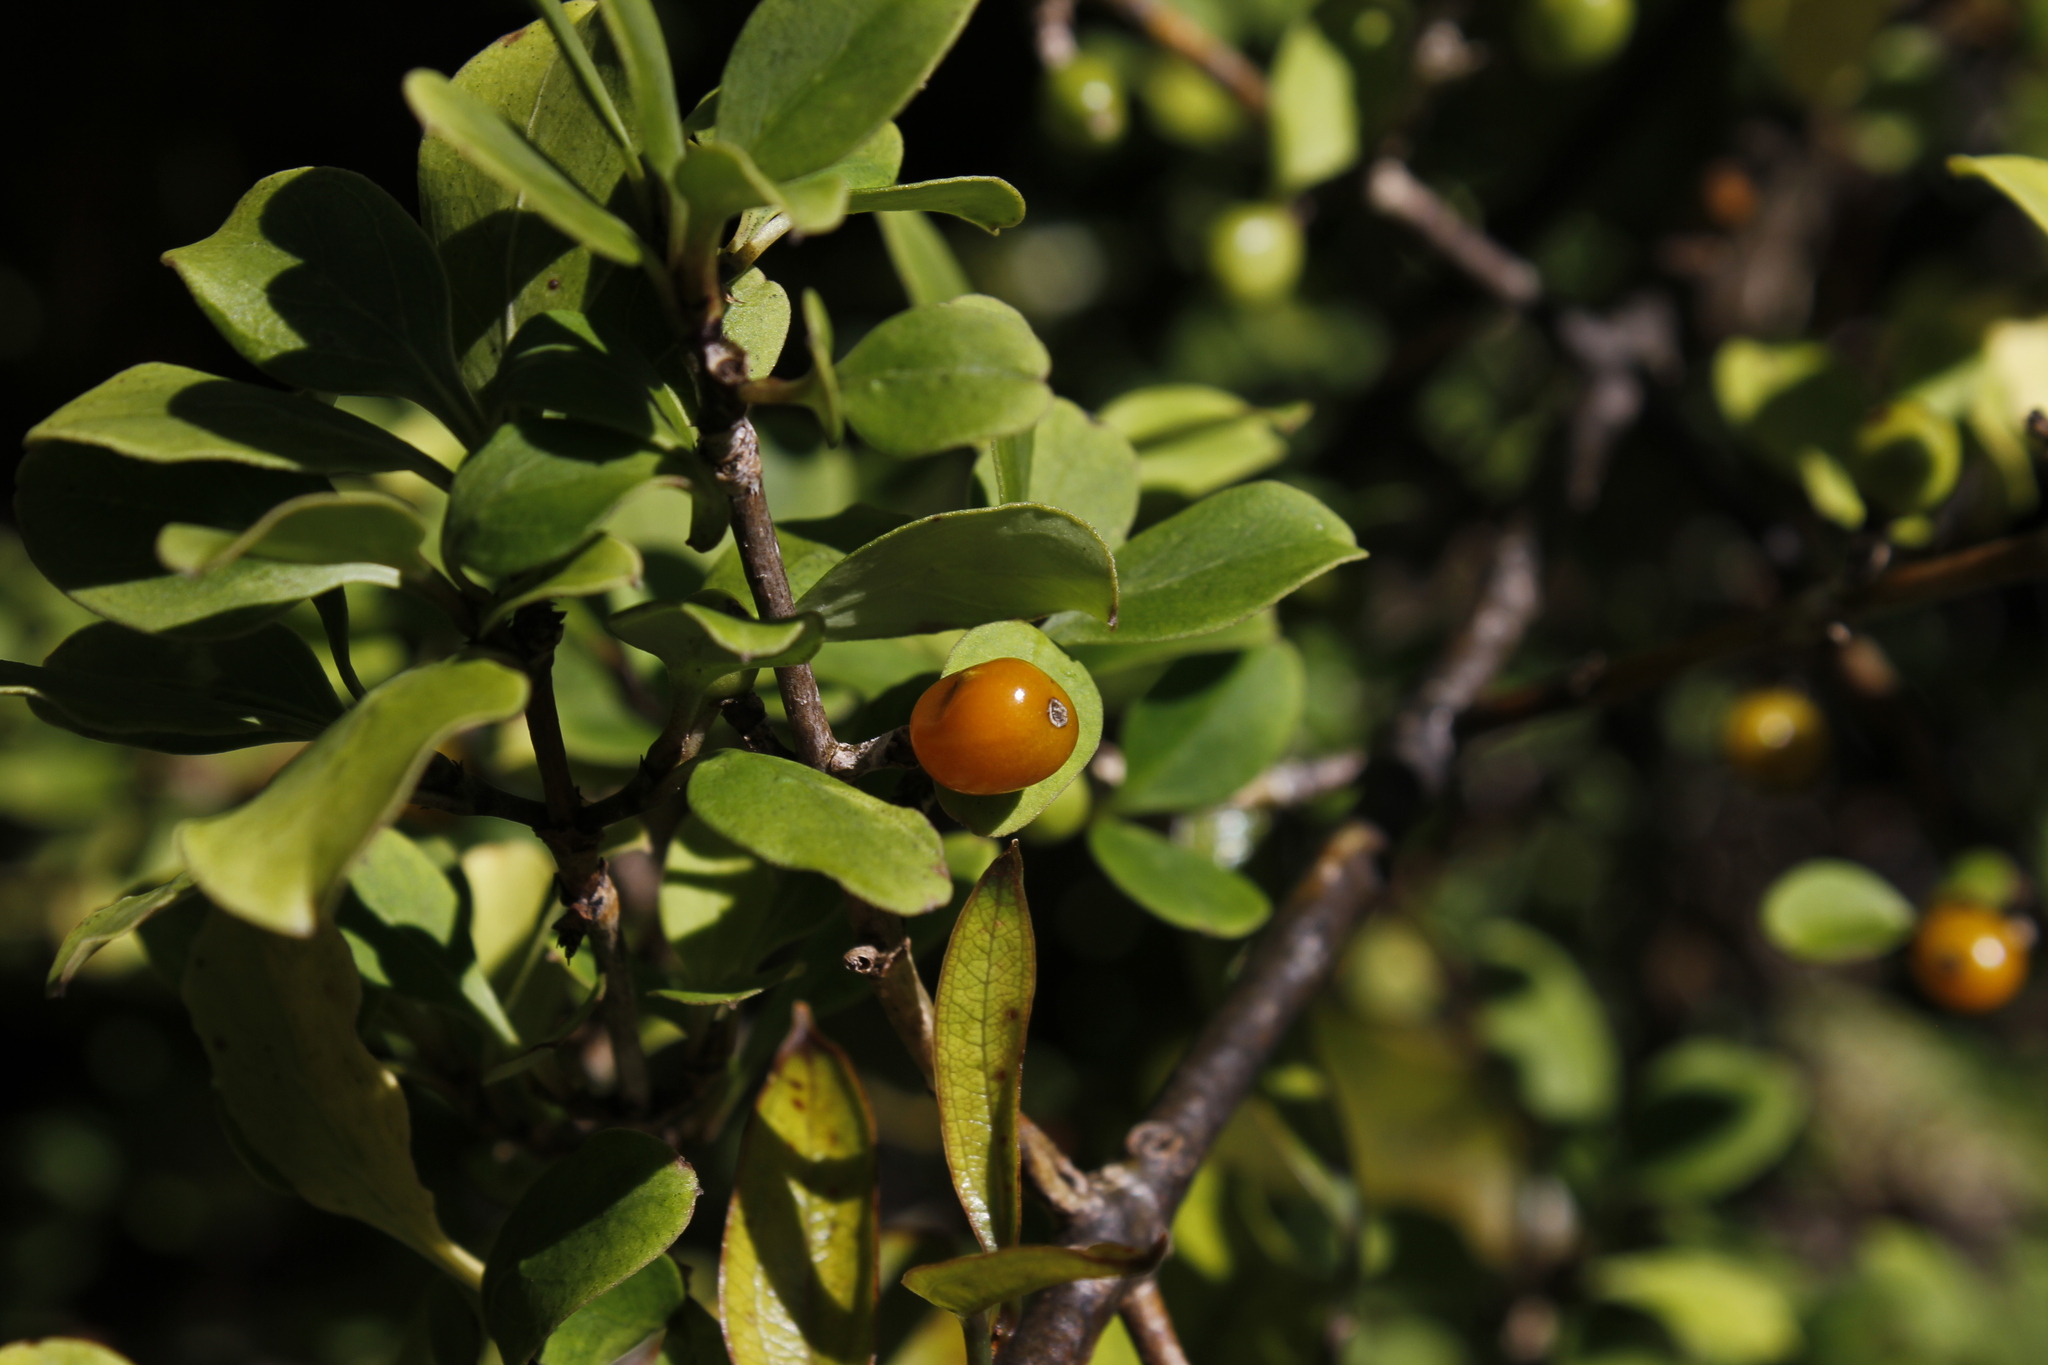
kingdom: Plantae
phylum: Tracheophyta
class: Magnoliopsida
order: Gentianales
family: Rubiaceae
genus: Coprosma
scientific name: Coprosma foetidissima
